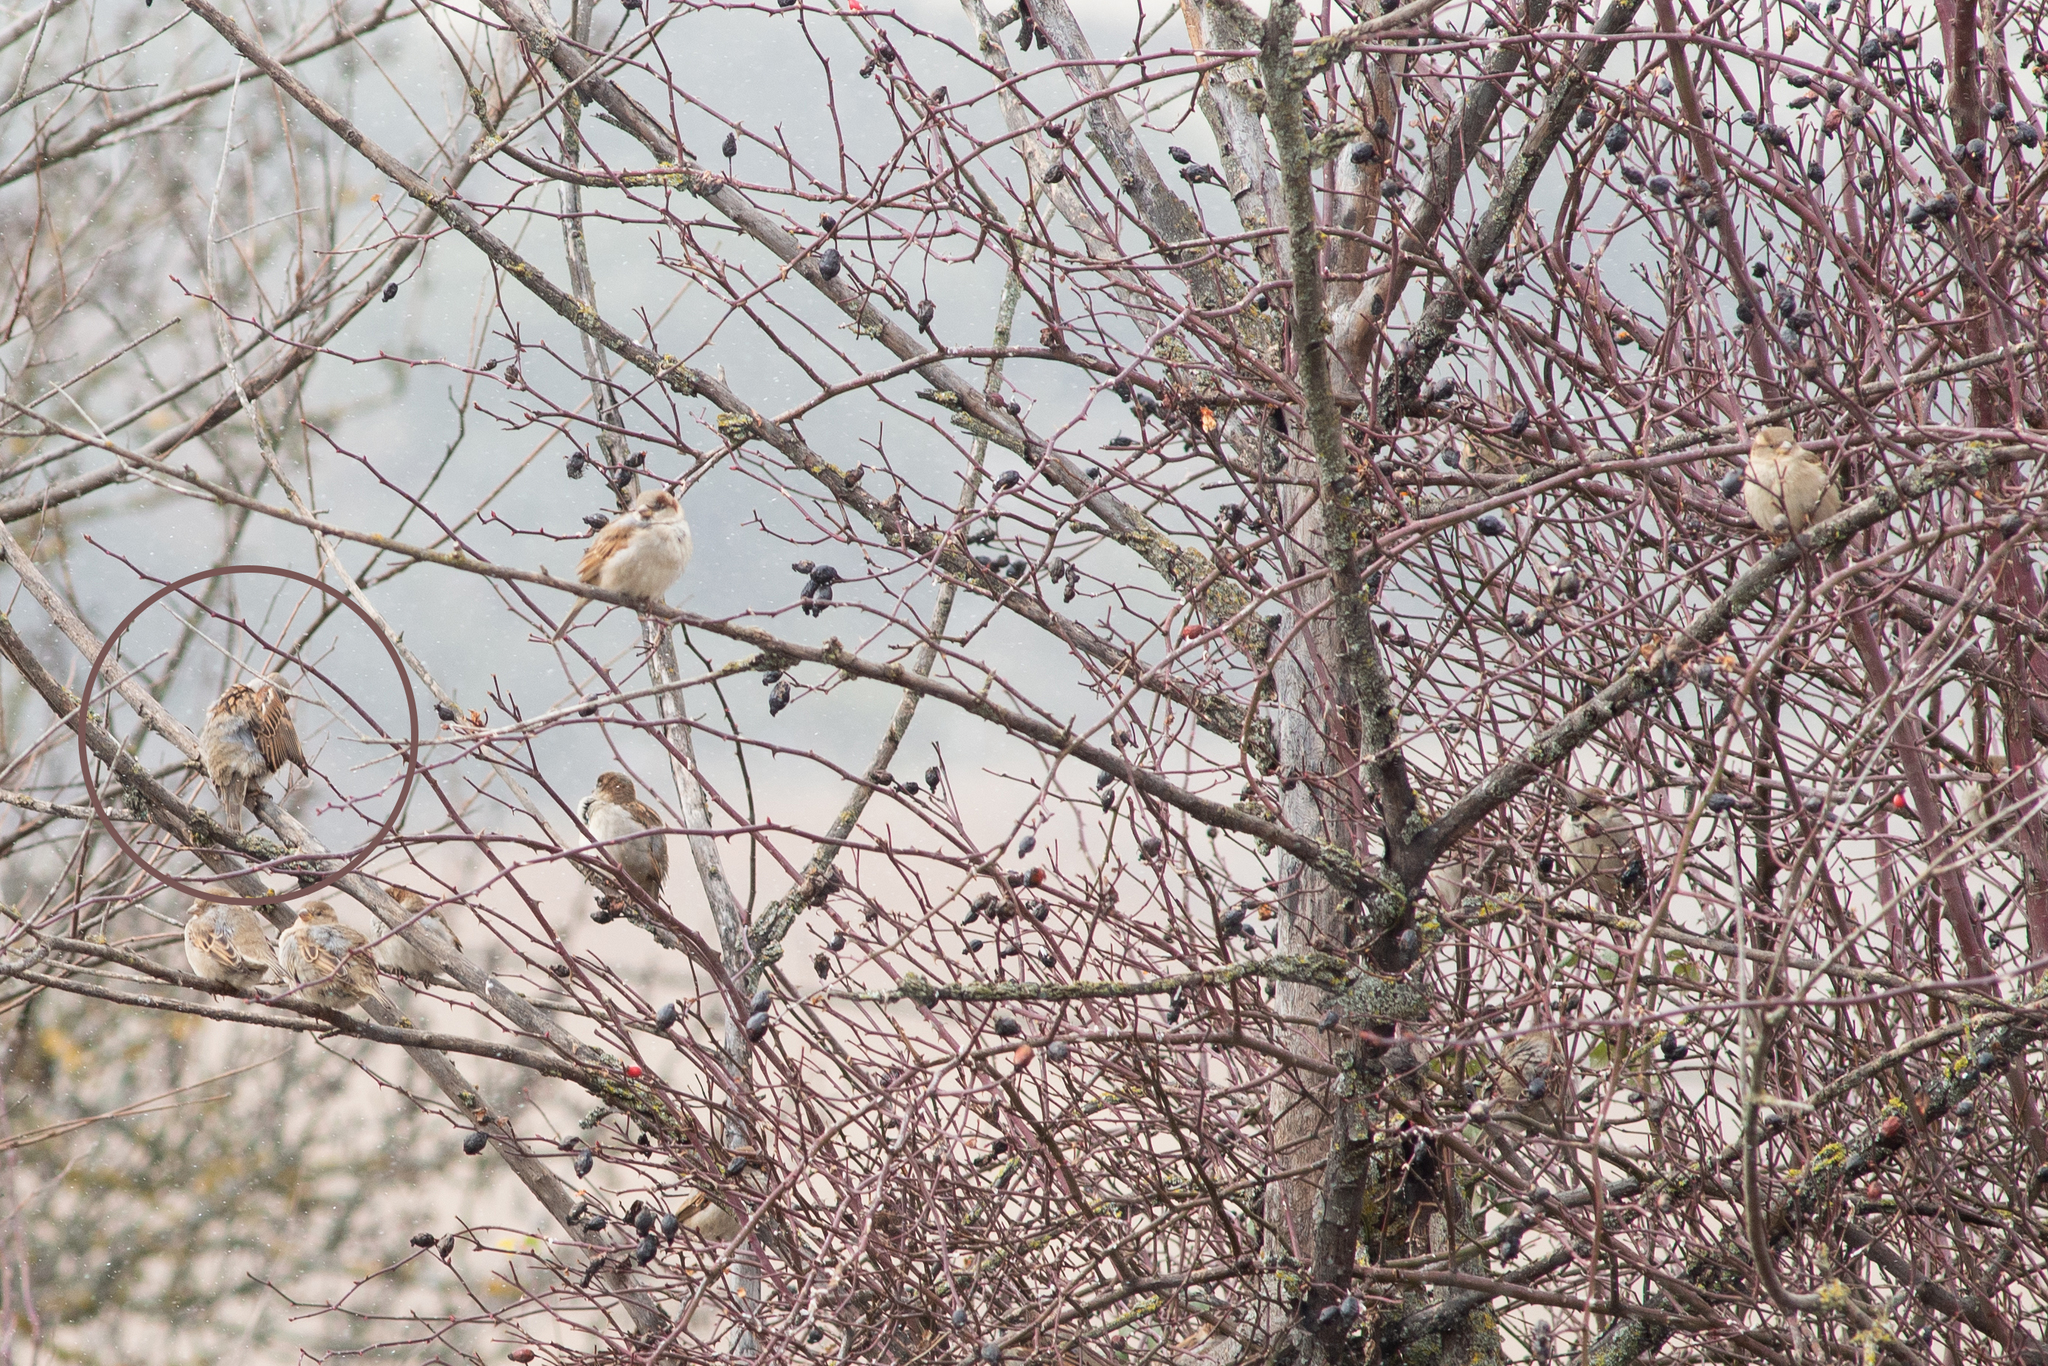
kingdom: Animalia
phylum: Chordata
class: Aves
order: Passeriformes
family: Passeridae
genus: Passer
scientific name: Passer domesticus
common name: House sparrow
